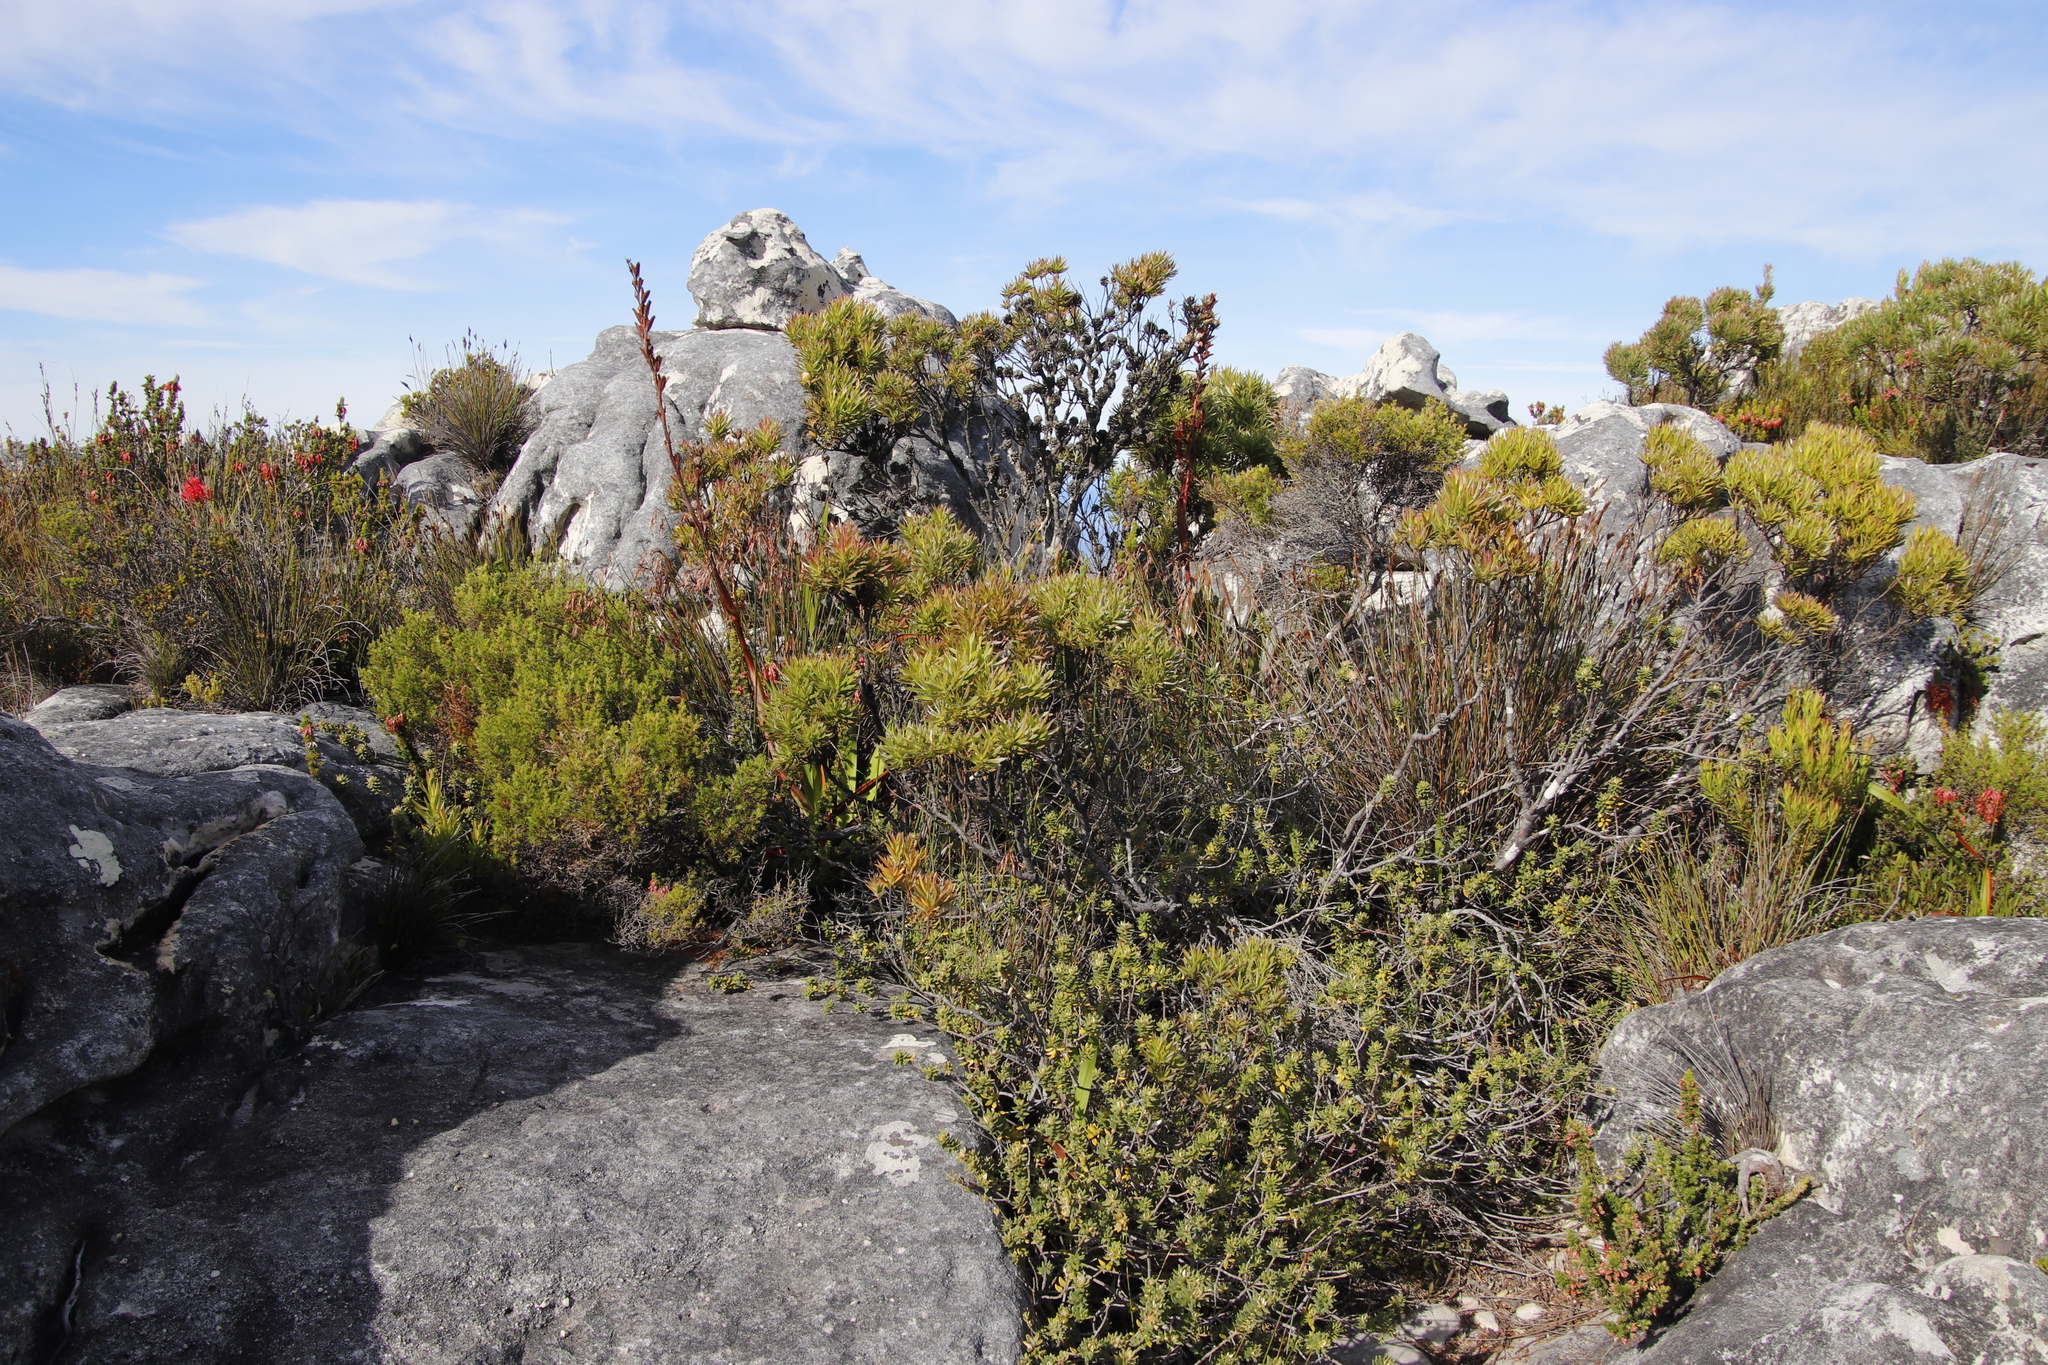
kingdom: Plantae
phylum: Tracheophyta
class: Magnoliopsida
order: Proteales
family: Proteaceae
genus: Leucadendron
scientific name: Leucadendron xanthoconus
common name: Sickle-leaf conebush
